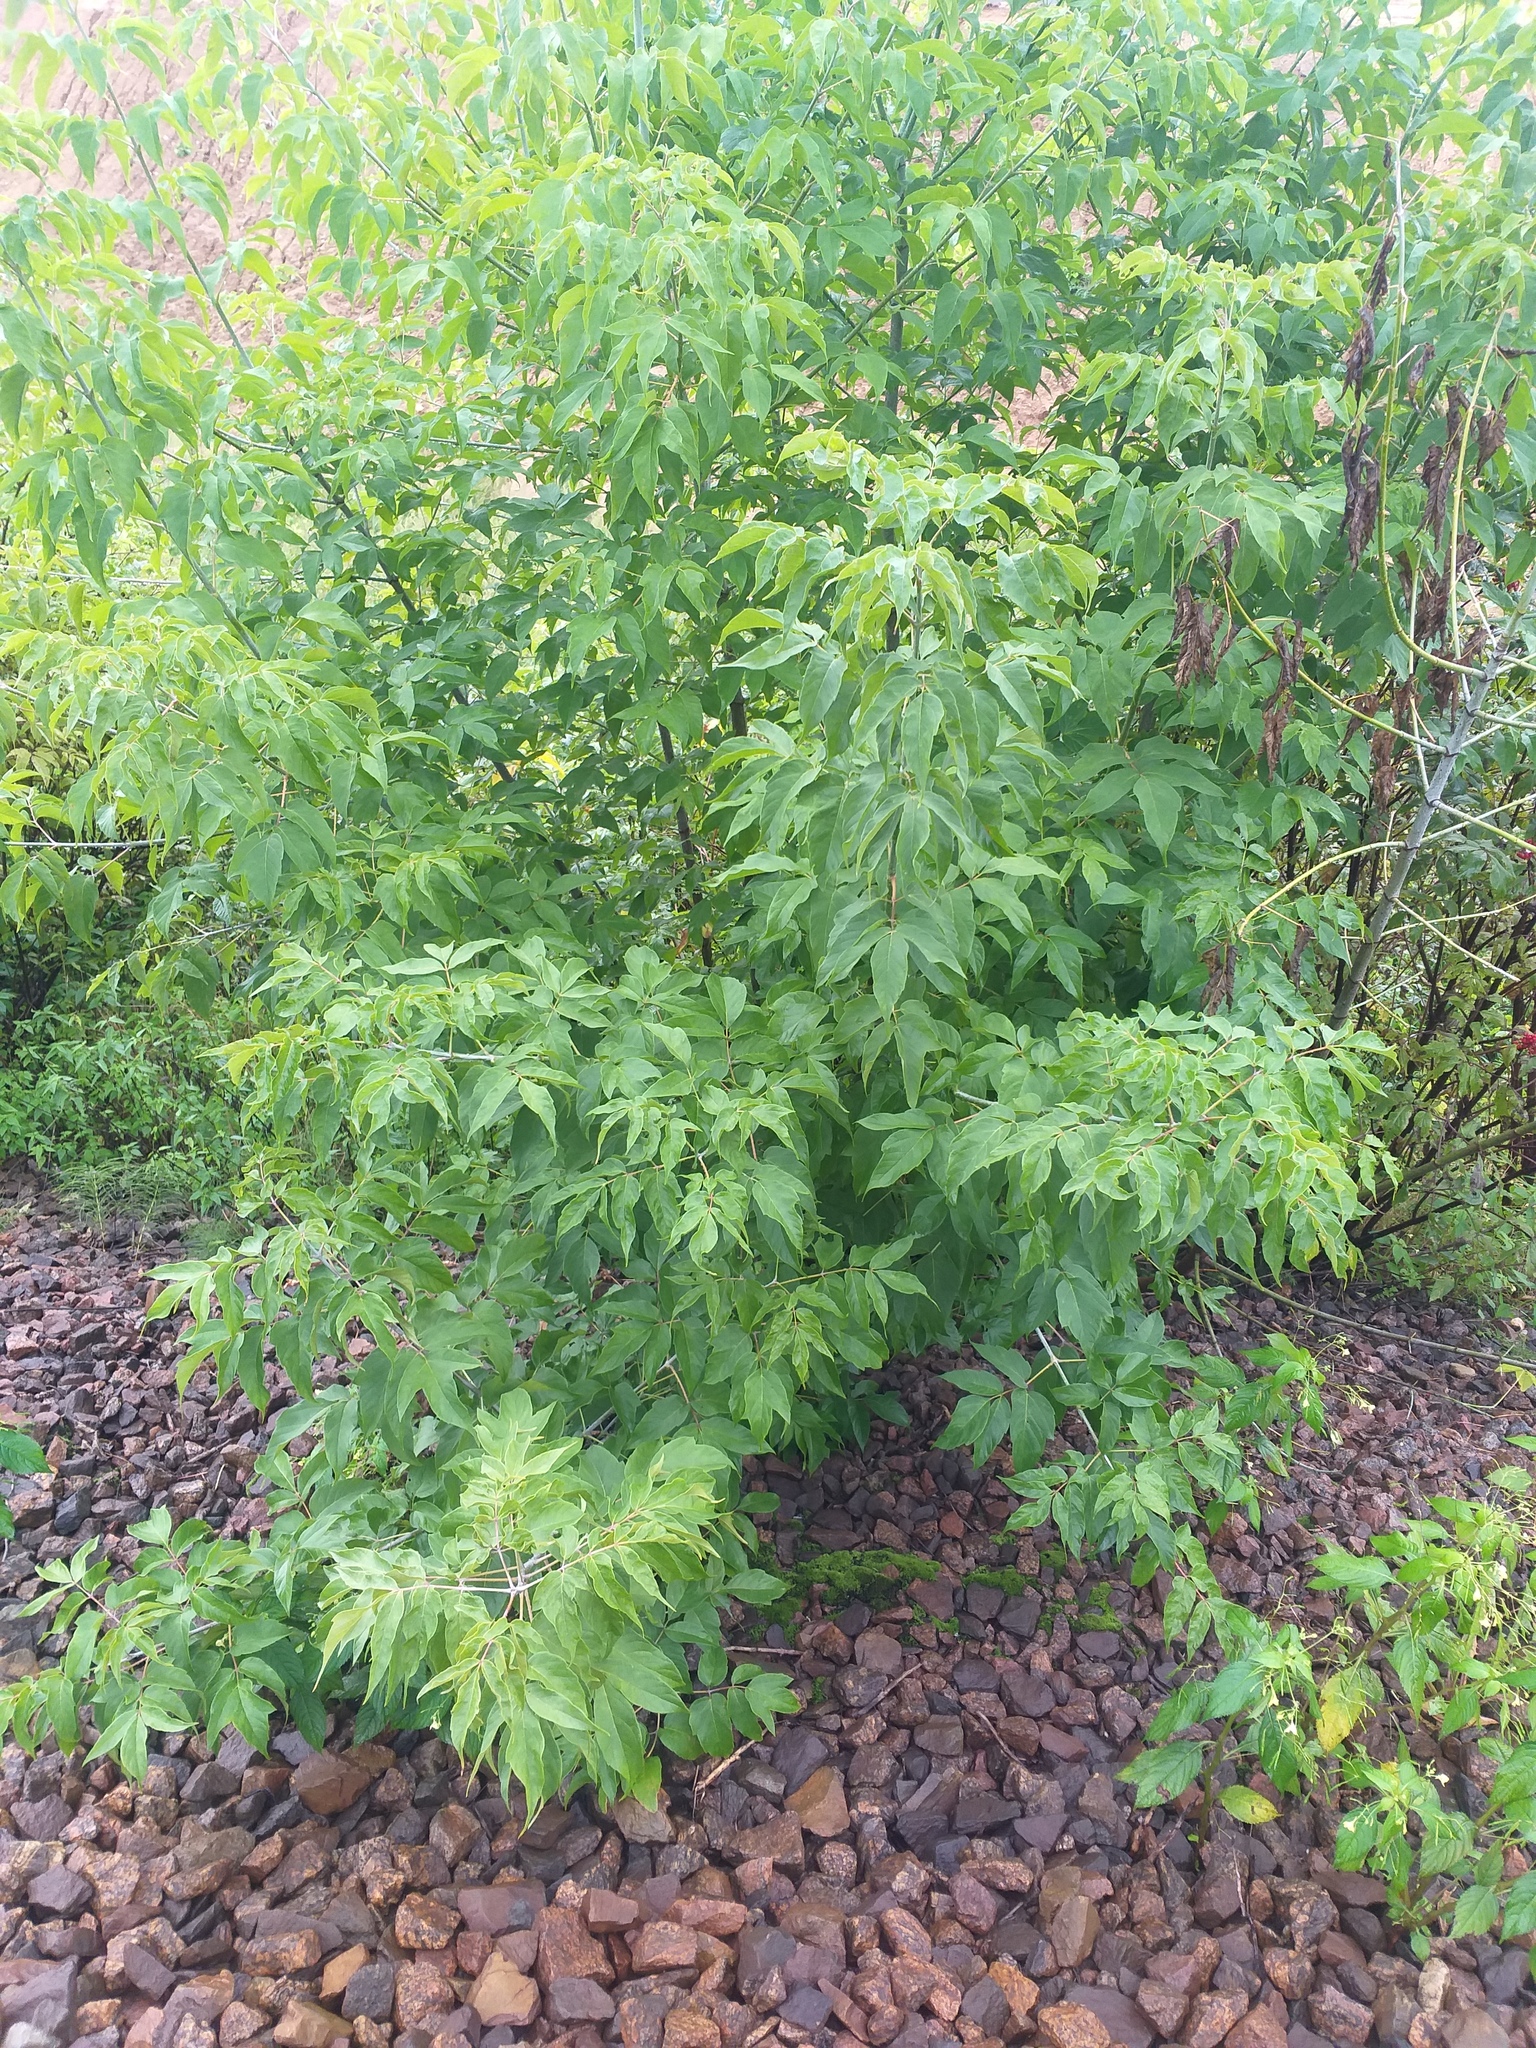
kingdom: Plantae
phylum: Tracheophyta
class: Magnoliopsida
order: Sapindales
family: Sapindaceae
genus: Acer
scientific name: Acer negundo
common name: Ashleaf maple
